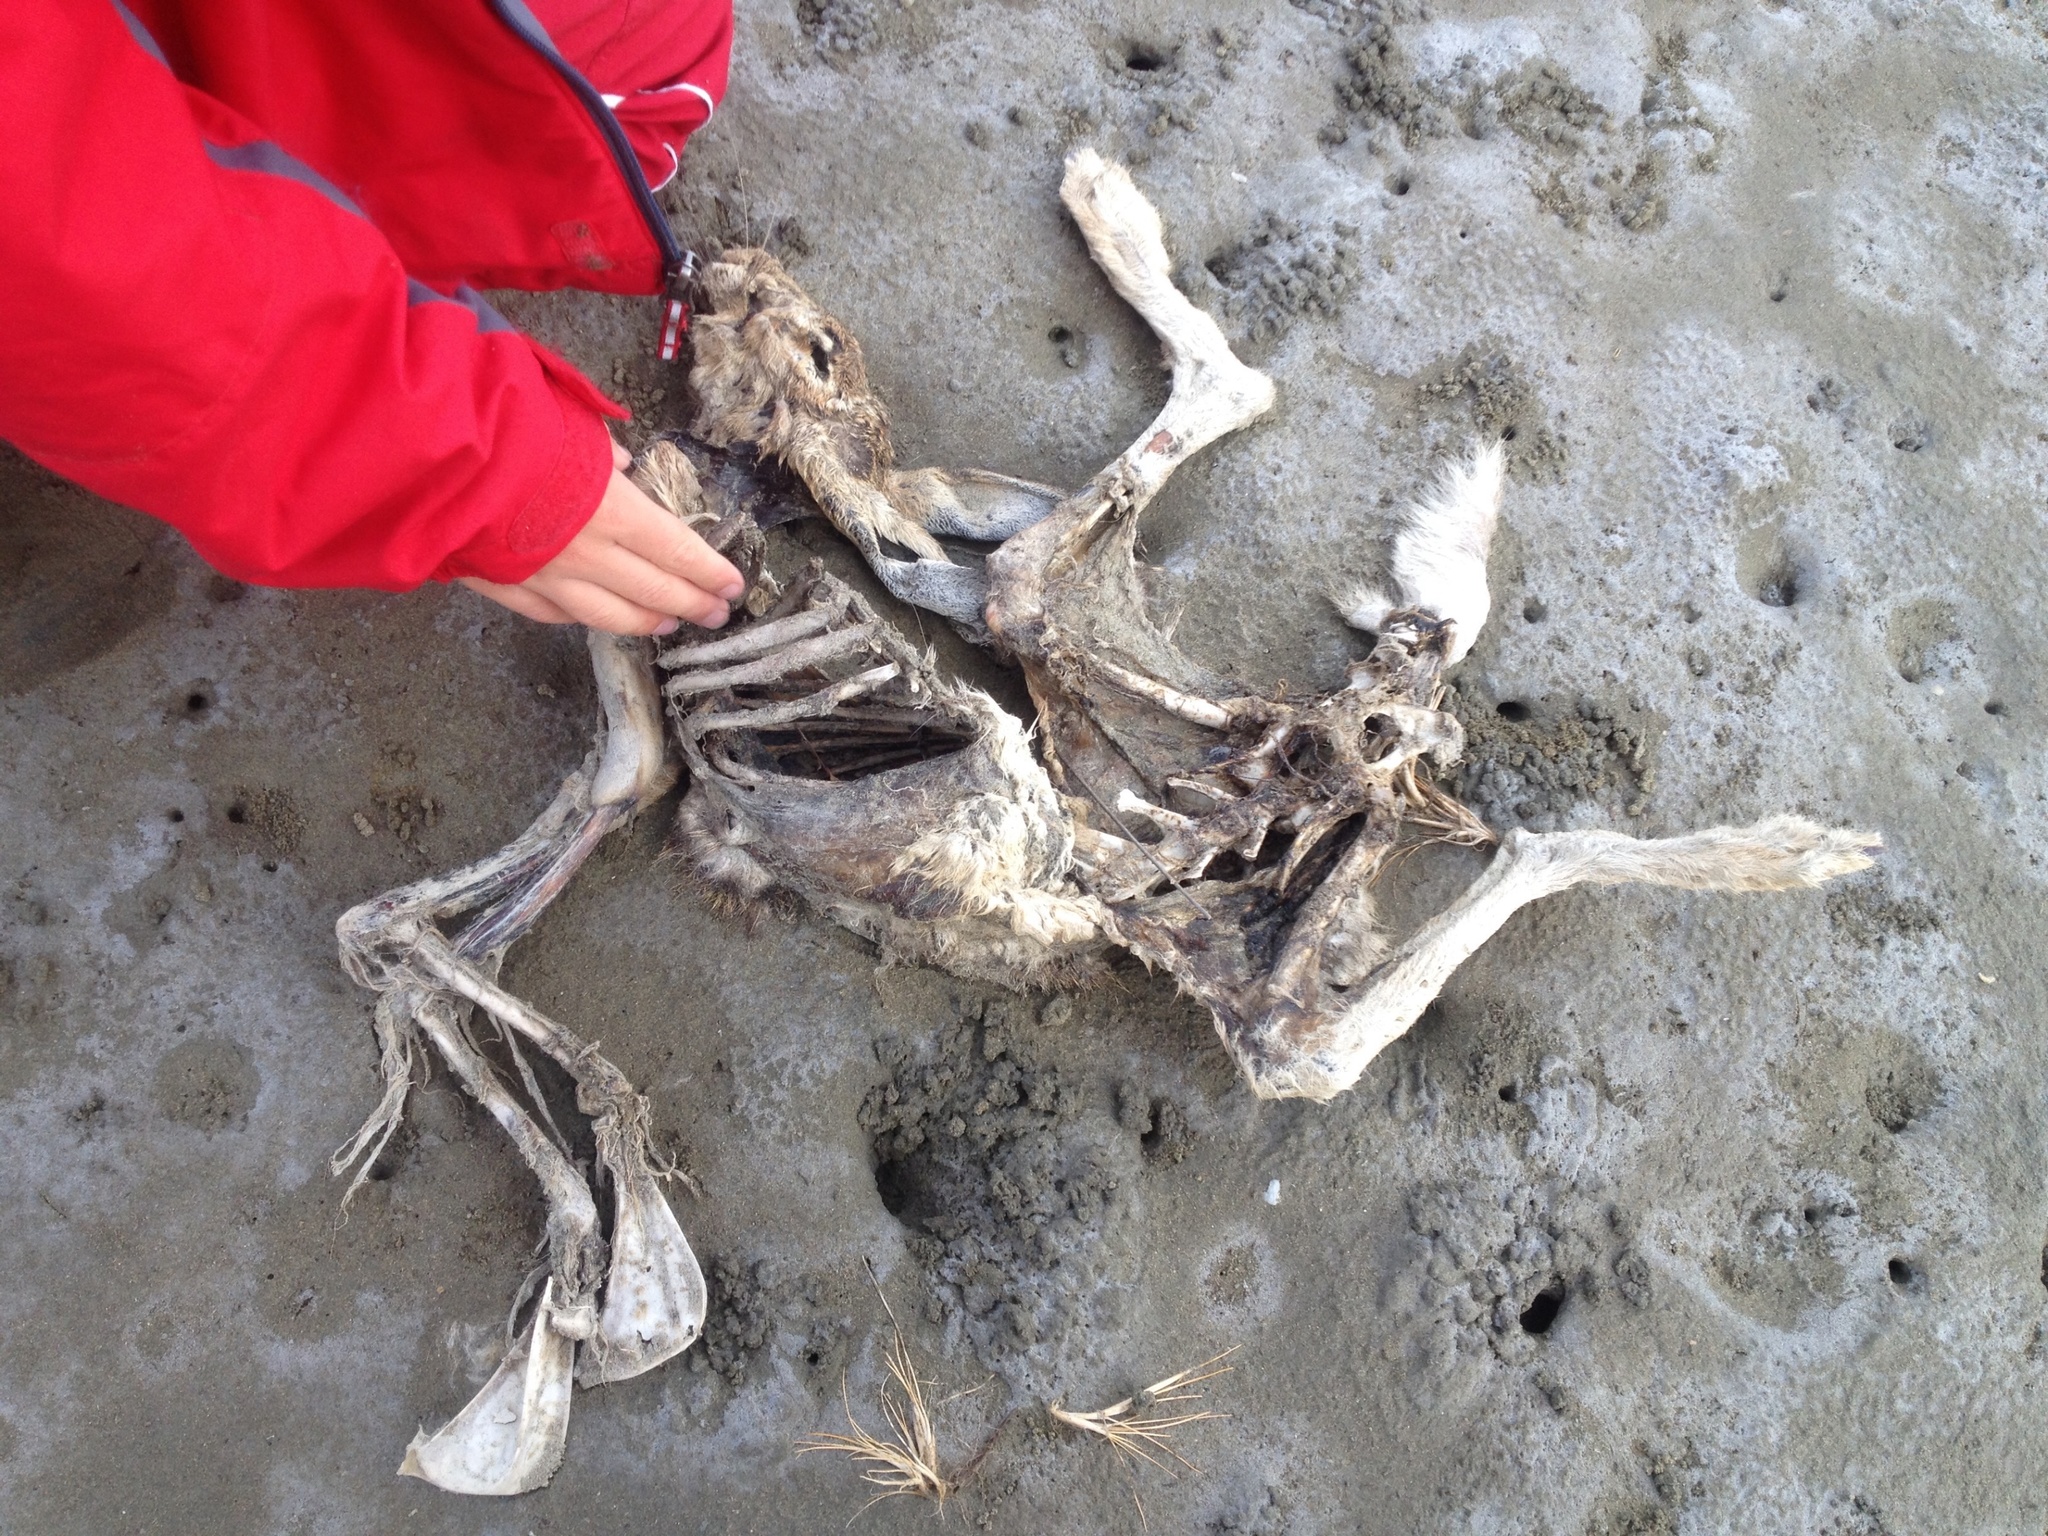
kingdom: Animalia
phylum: Chordata
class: Mammalia
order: Lagomorpha
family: Leporidae
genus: Lepus
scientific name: Lepus europaeus
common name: European hare
